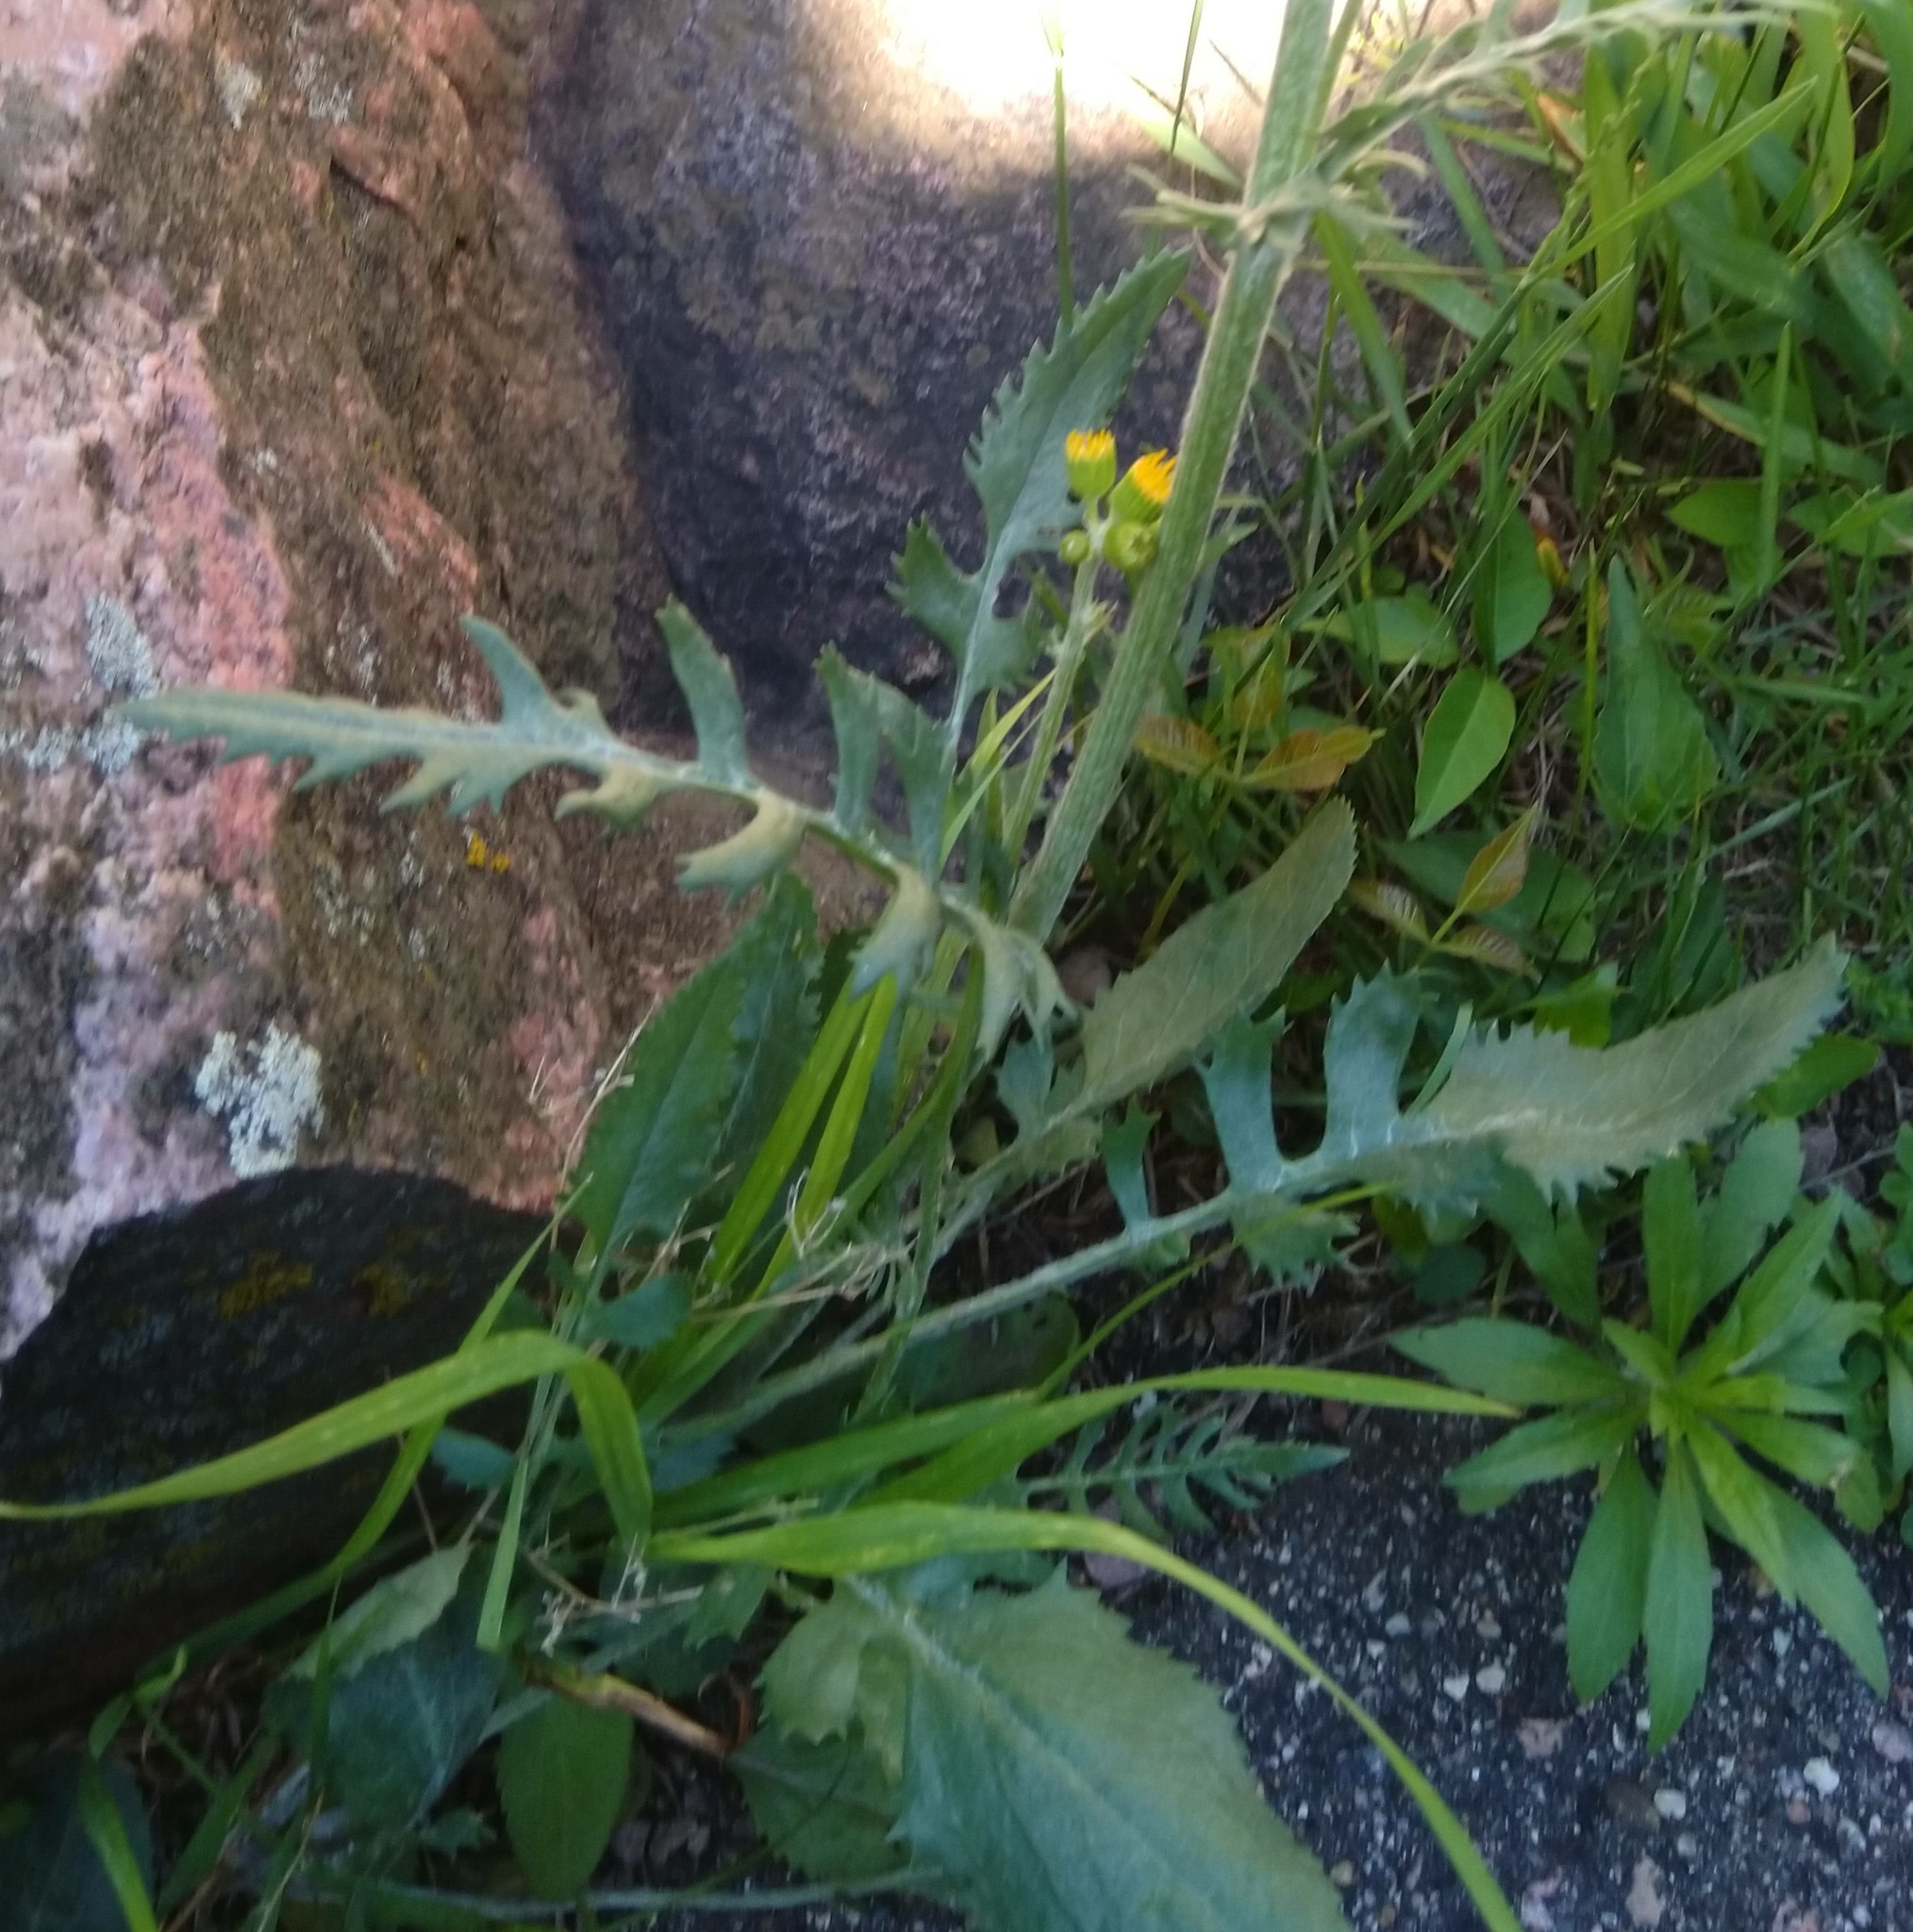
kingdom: Plantae
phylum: Tracheophyta
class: Magnoliopsida
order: Asterales
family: Asteraceae
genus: Packera
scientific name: Packera plattensis
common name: Prairie groundsel
